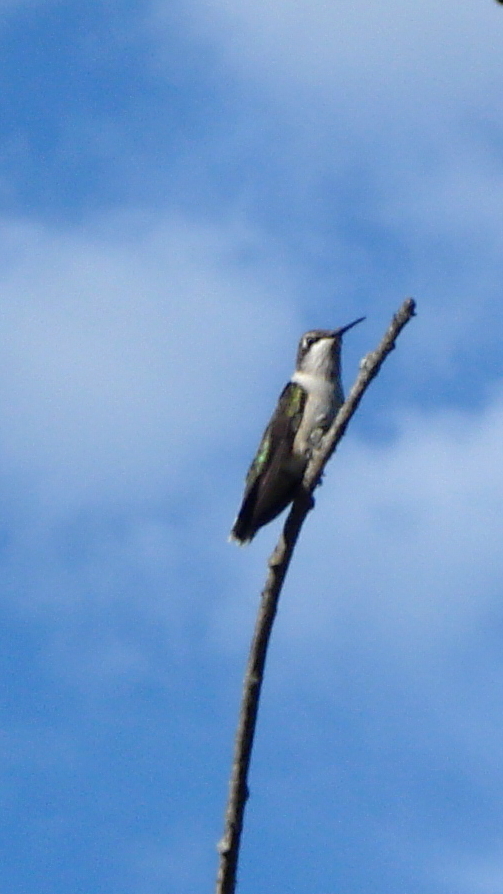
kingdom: Animalia
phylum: Chordata
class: Aves
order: Apodiformes
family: Trochilidae
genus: Archilochus
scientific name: Archilochus colubris
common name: Ruby-throated hummingbird
